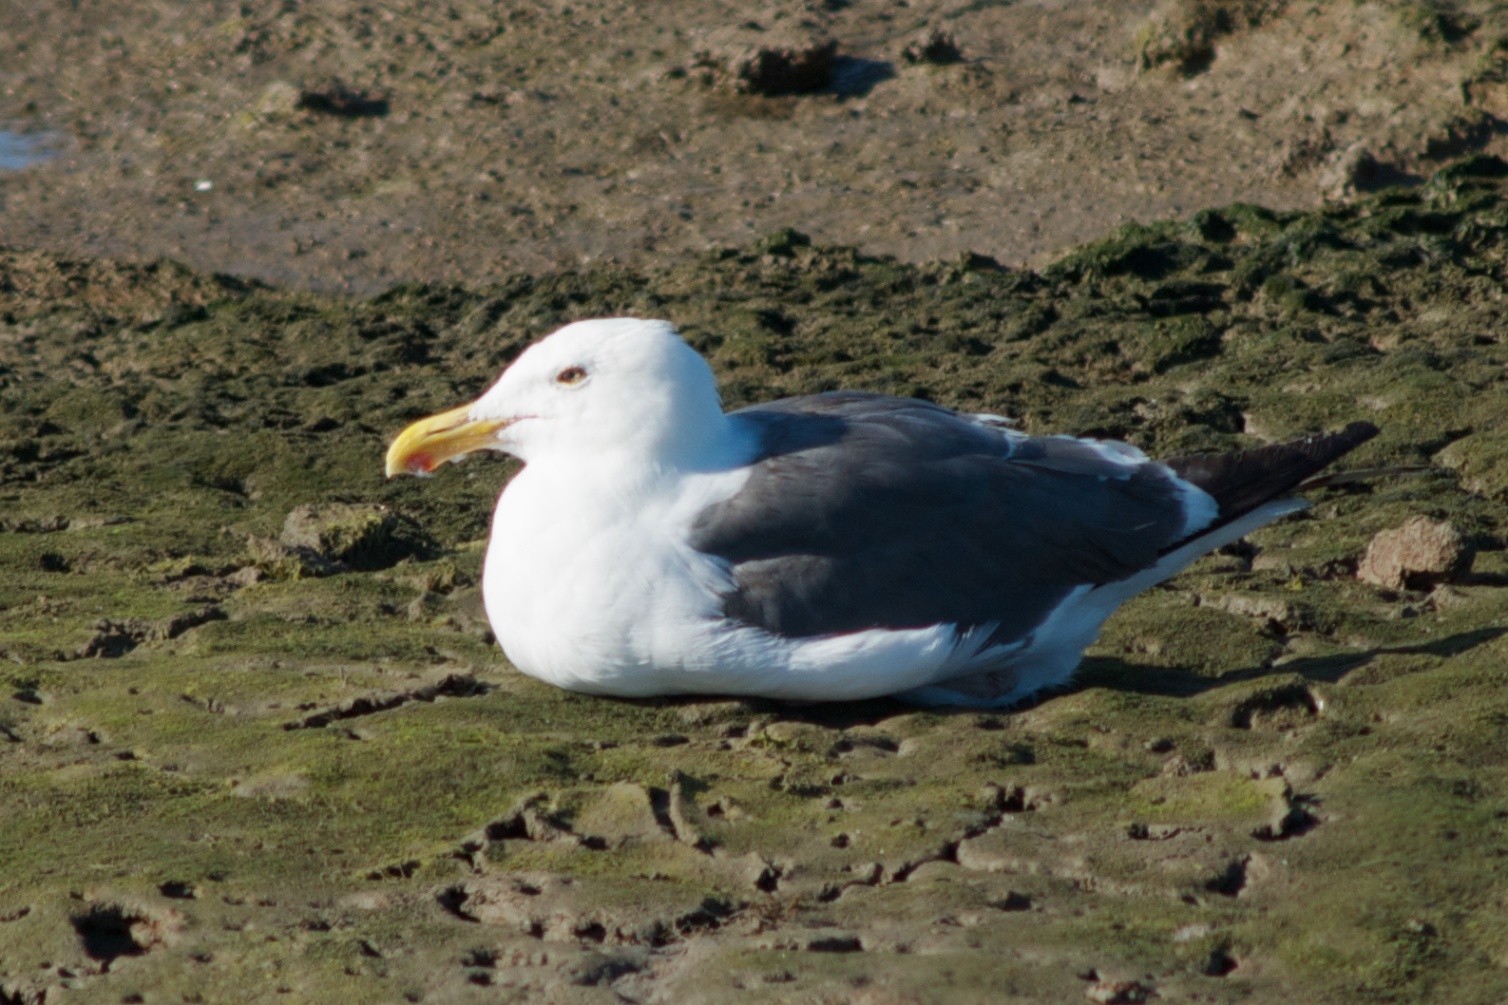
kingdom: Animalia
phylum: Chordata
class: Aves
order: Charadriiformes
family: Laridae
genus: Larus
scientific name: Larus occidentalis
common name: Western gull
